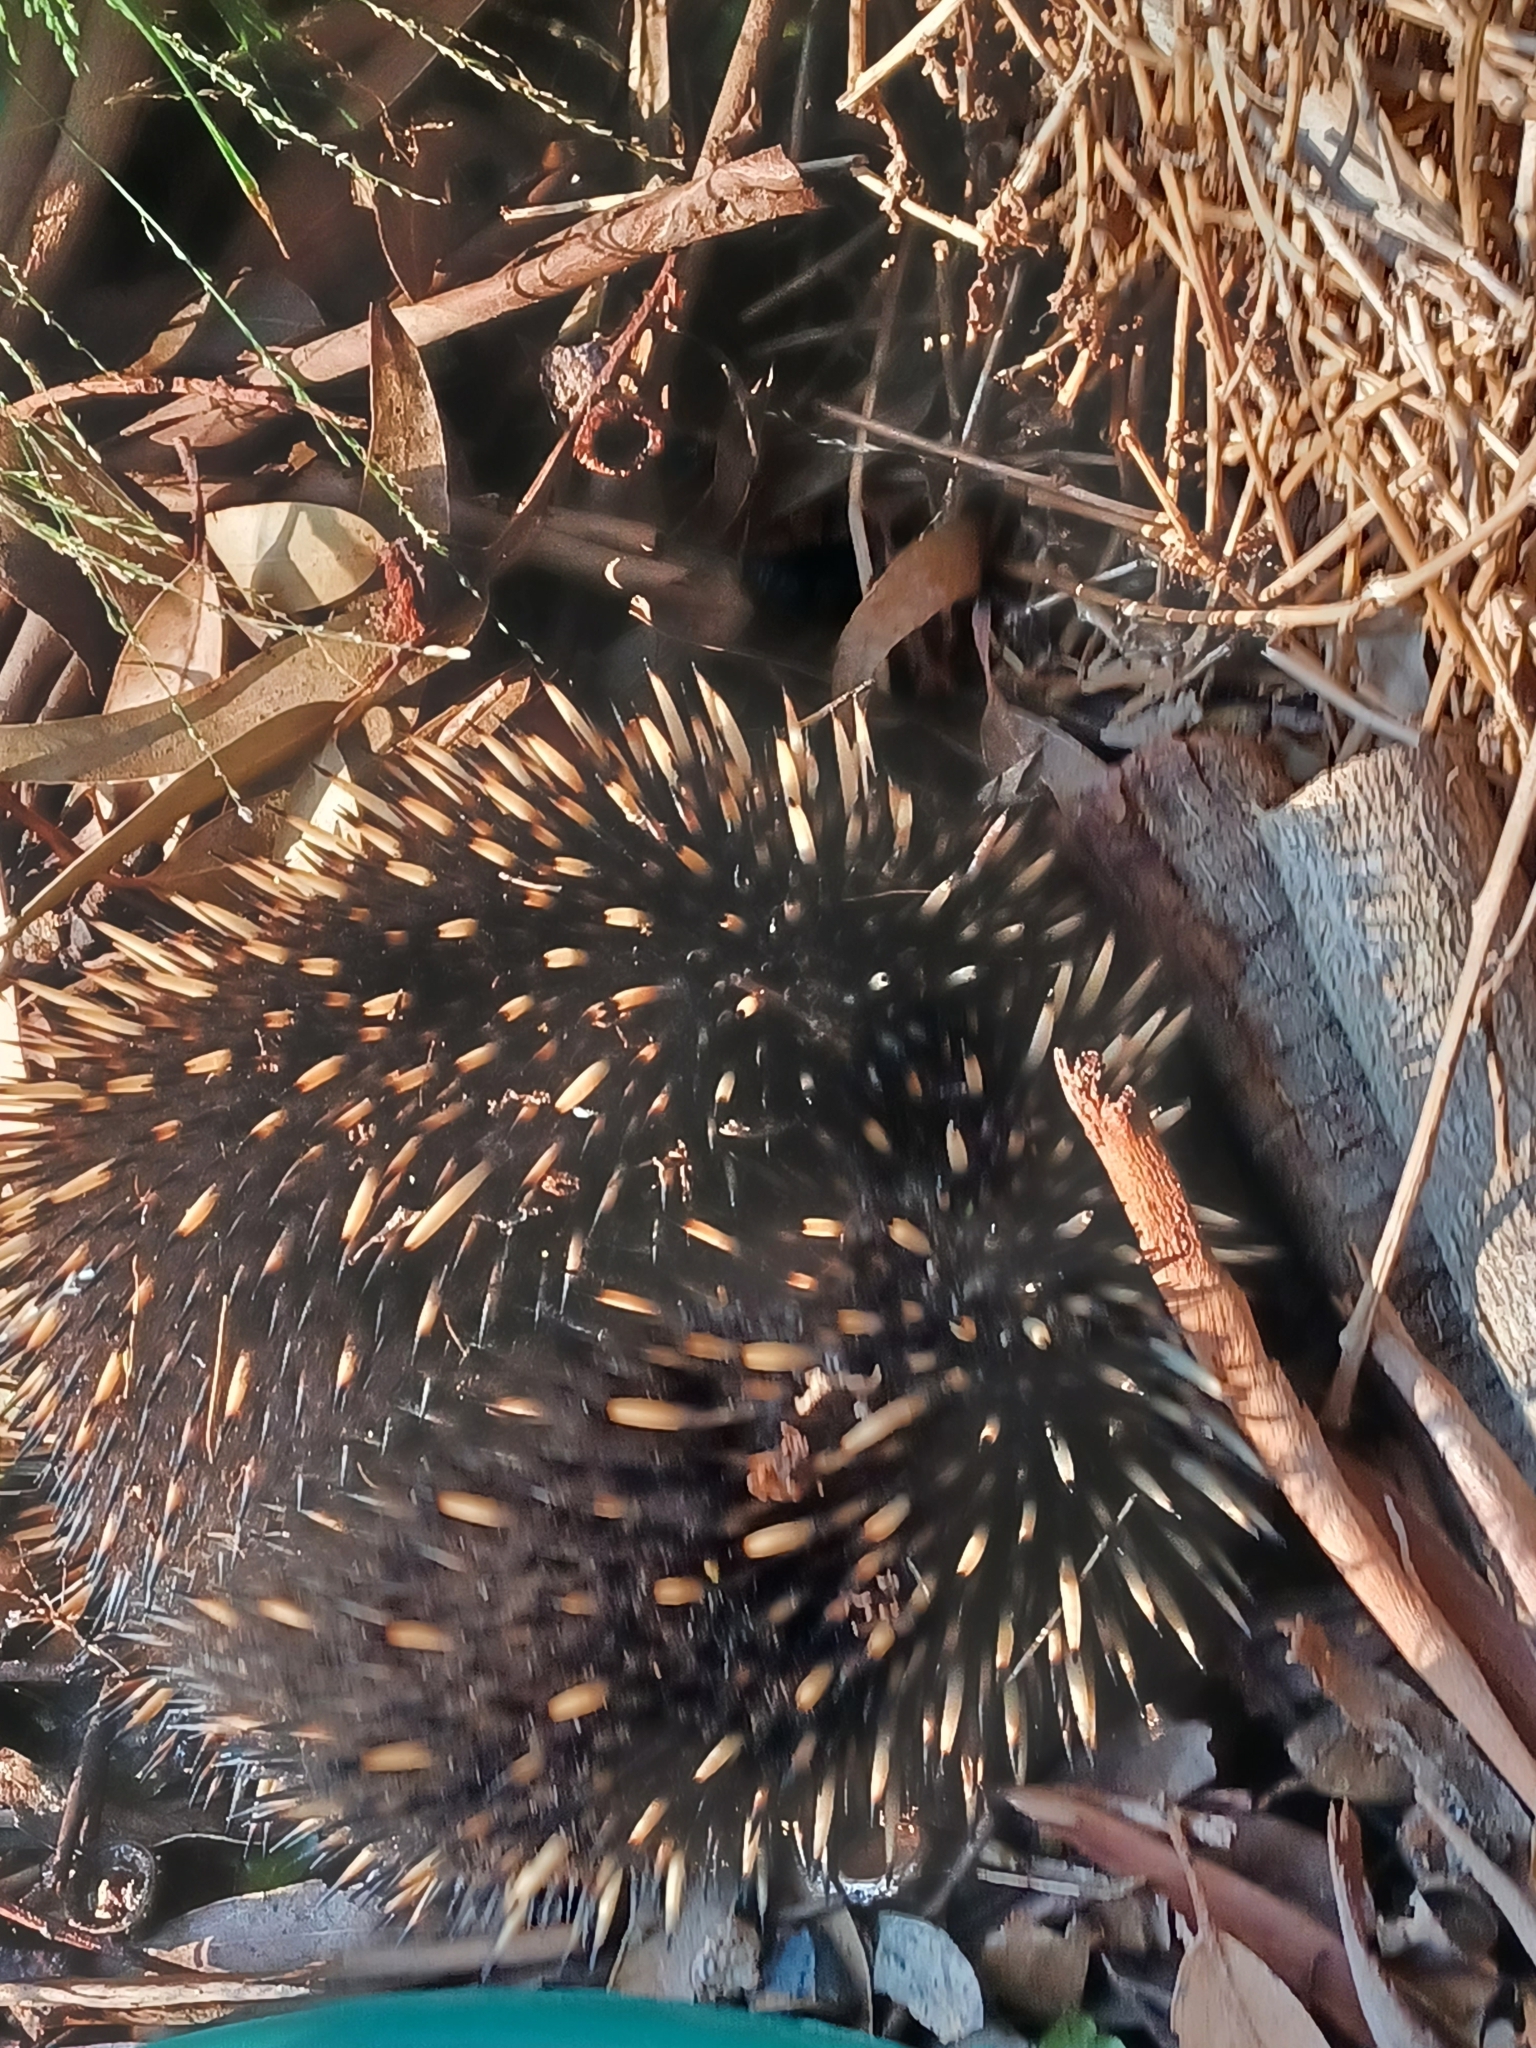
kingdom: Animalia
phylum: Chordata
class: Mammalia
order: Monotremata
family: Tachyglossidae
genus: Tachyglossus
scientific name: Tachyglossus aculeatus
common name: Short-beaked echidna
